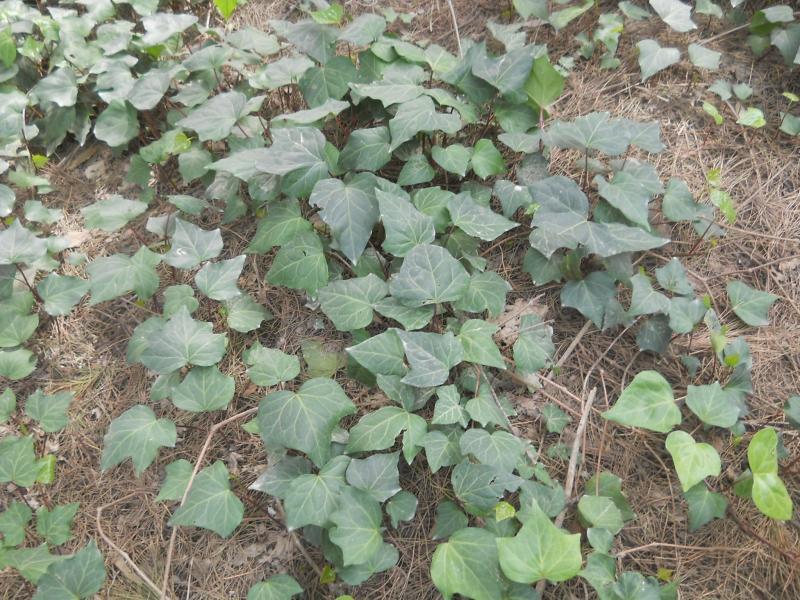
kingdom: Plantae
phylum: Tracheophyta
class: Magnoliopsida
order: Apiales
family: Araliaceae
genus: Hedera
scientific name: Hedera helix
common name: Ivy
